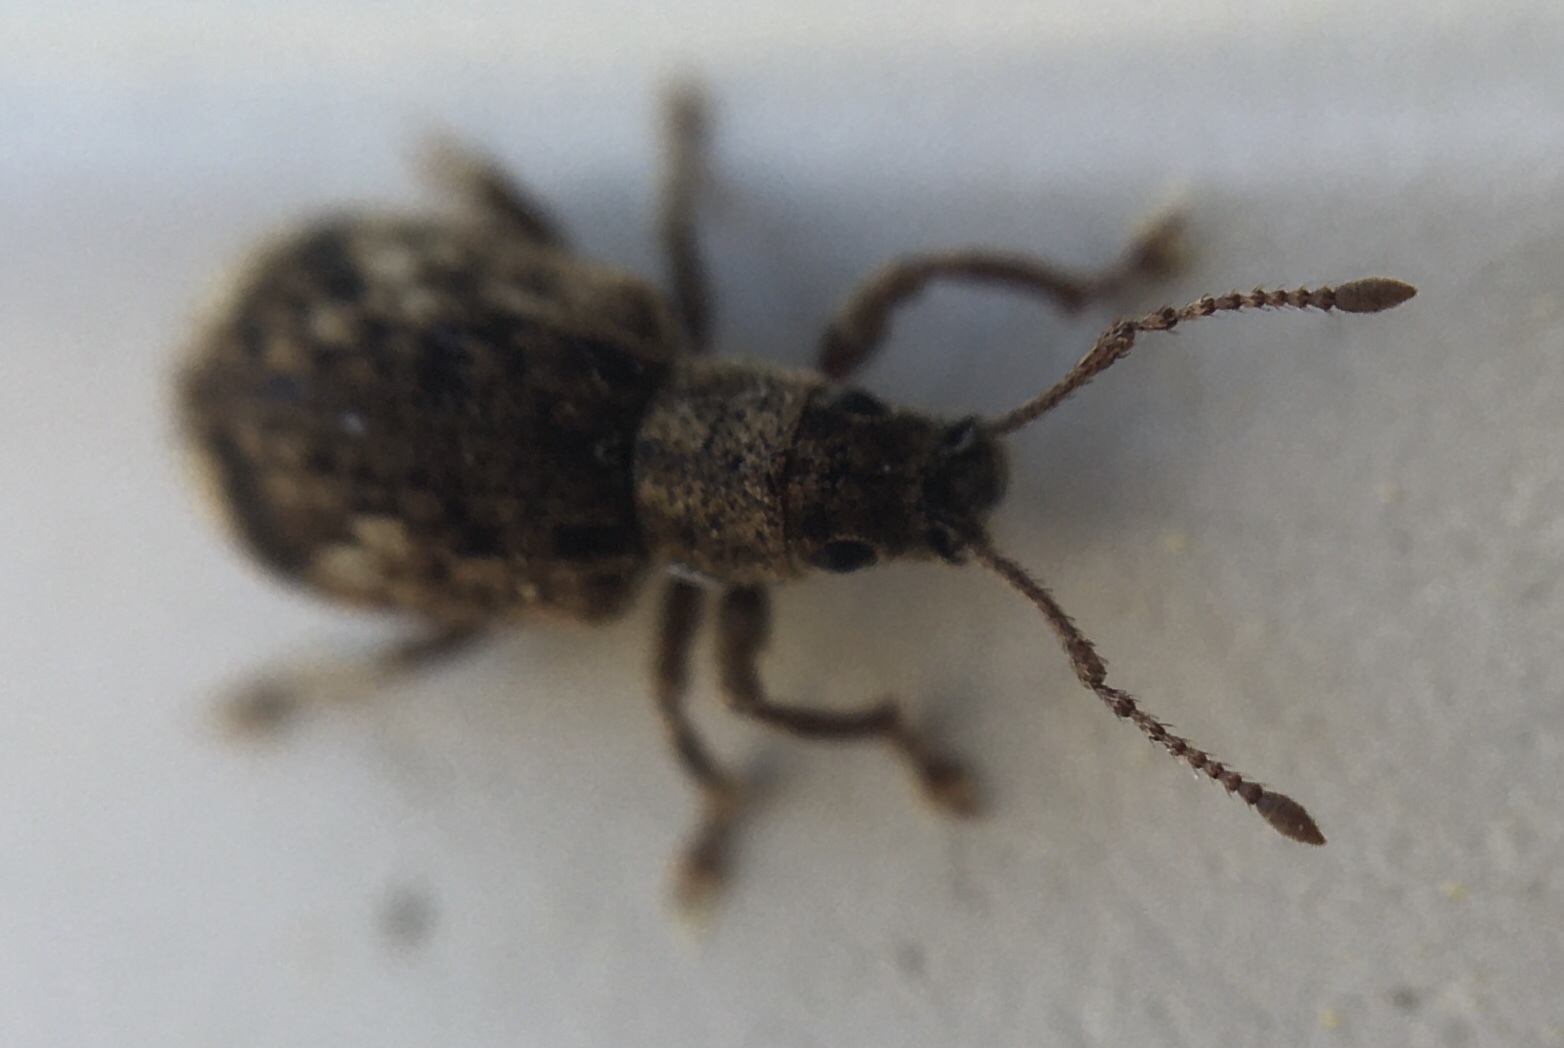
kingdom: Animalia
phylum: Arthropoda
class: Insecta
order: Coleoptera
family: Curculionidae
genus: Pseudoedophrys
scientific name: Pseudoedophrys hilleri
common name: Weevil
